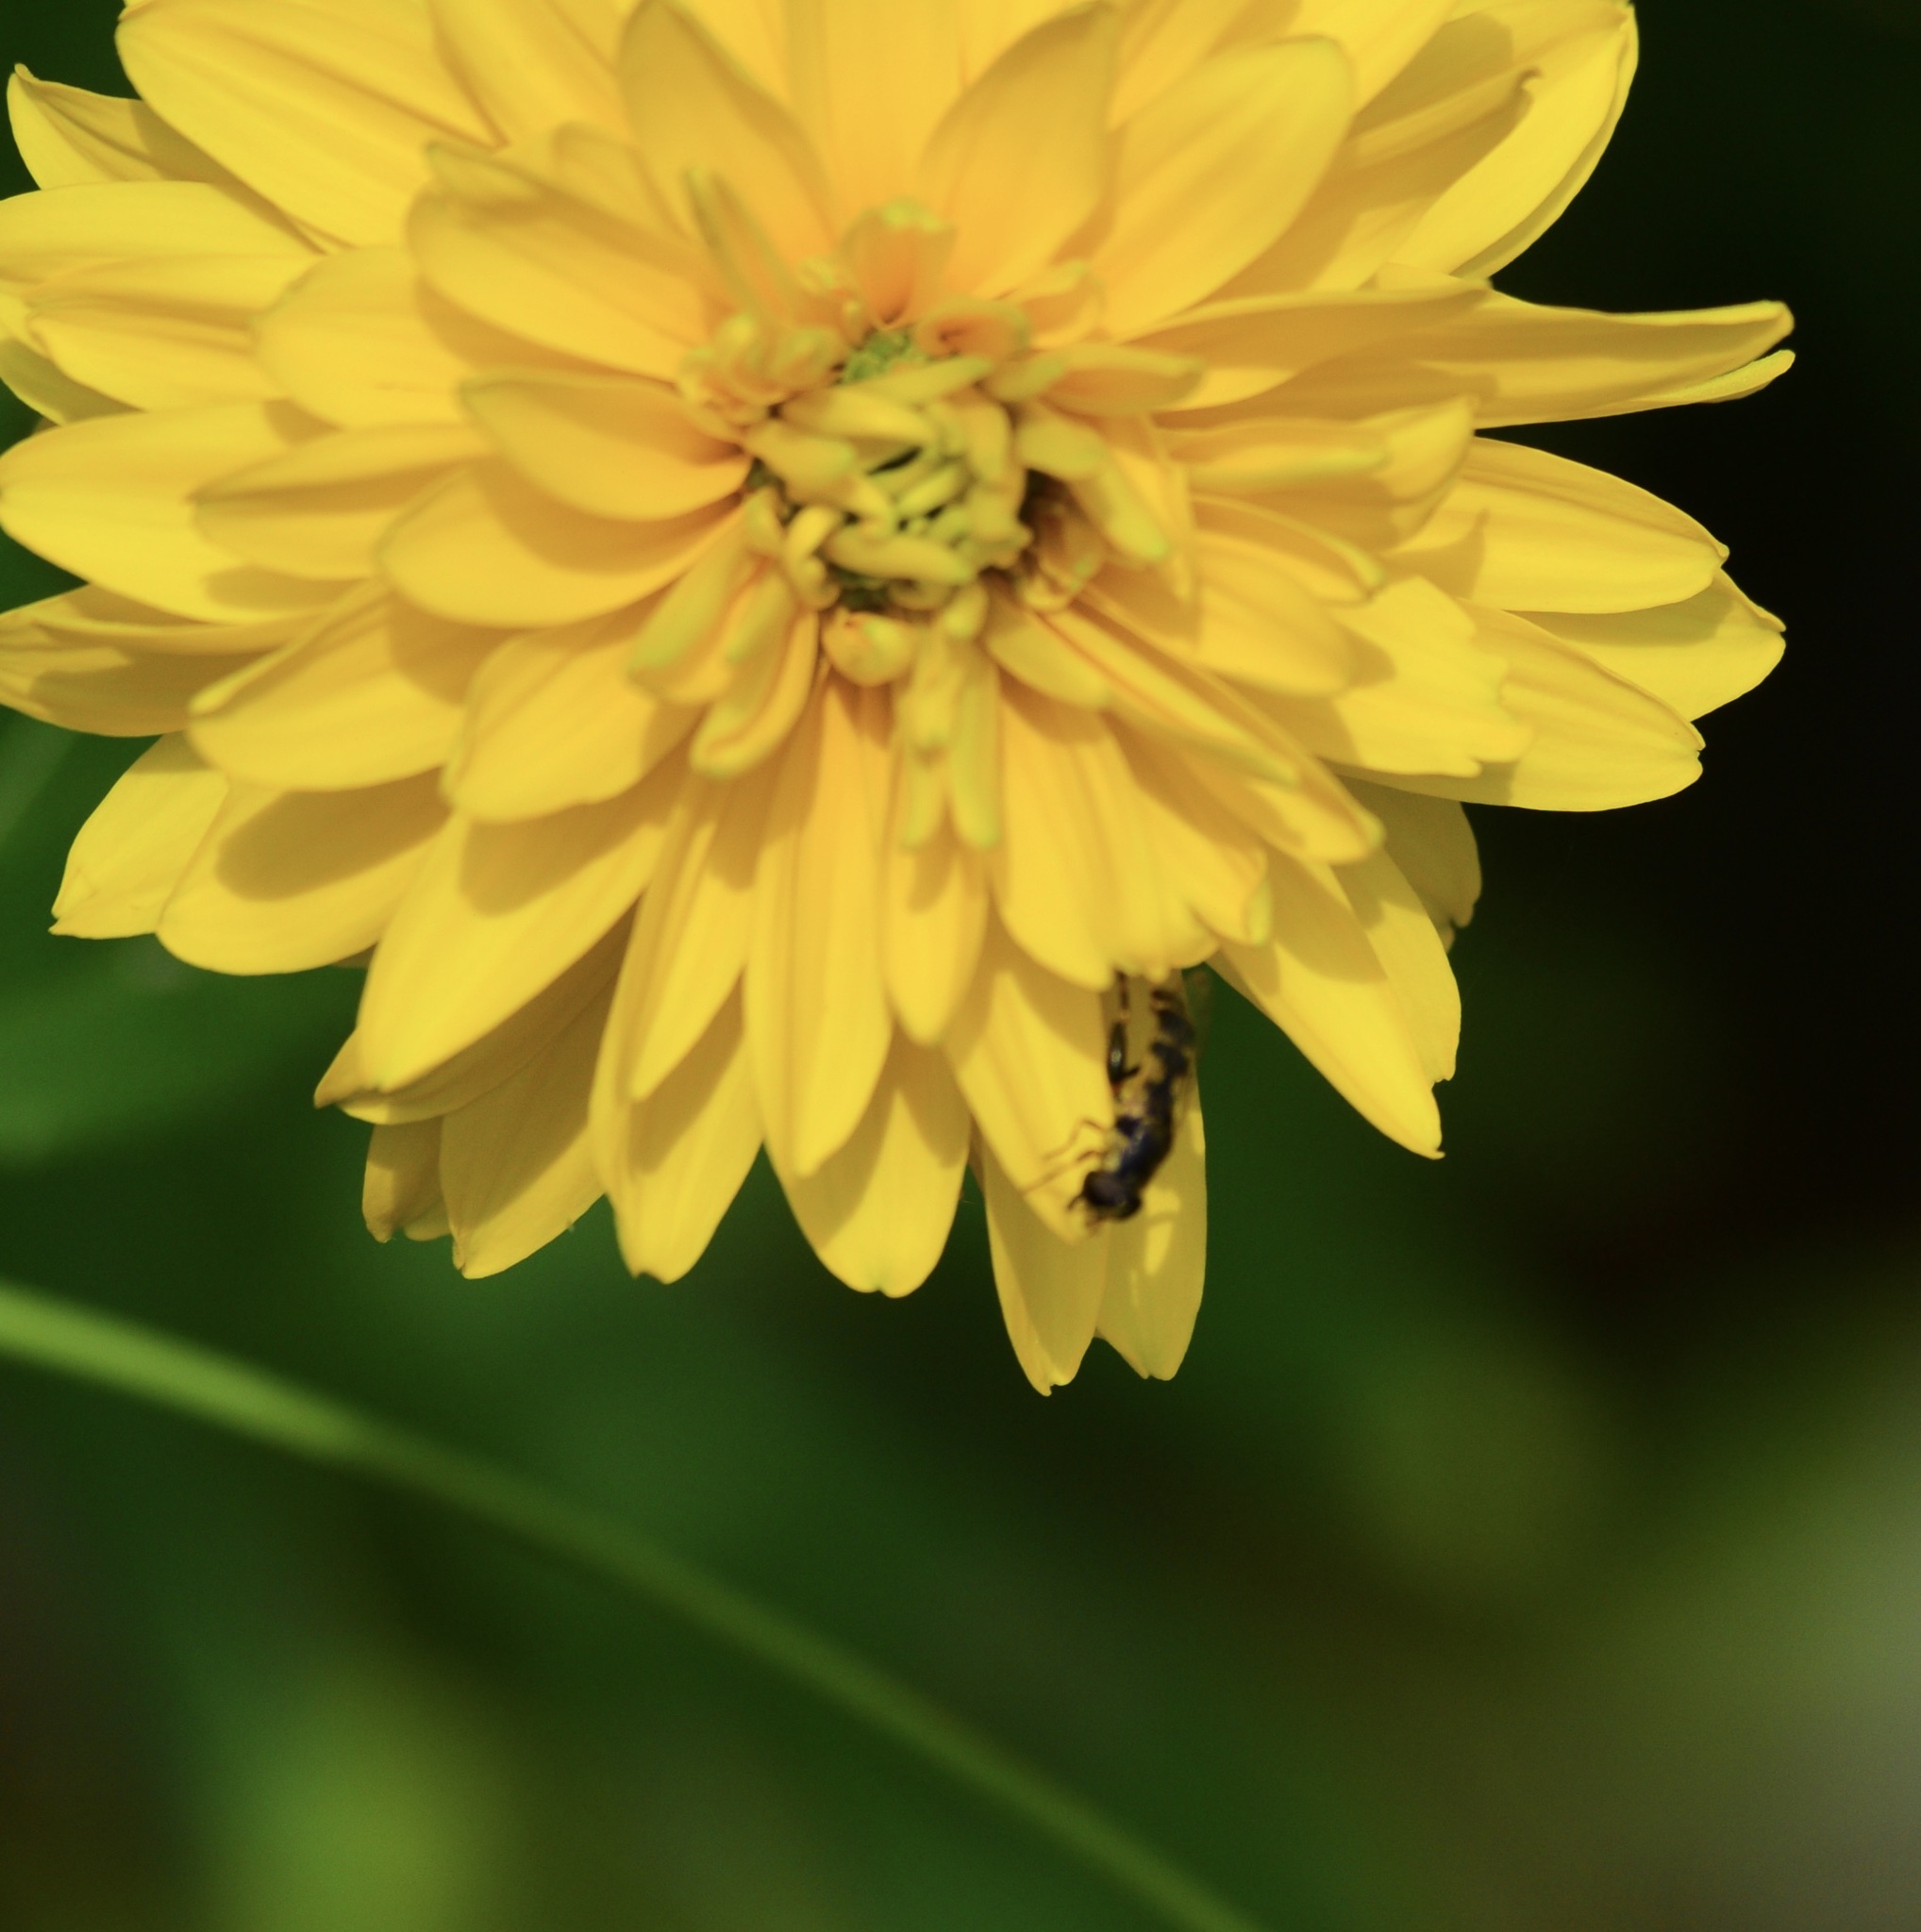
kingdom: Animalia
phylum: Arthropoda
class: Insecta
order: Diptera
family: Syrphidae
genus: Syritta
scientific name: Syritta pipiens
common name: Hover fly
